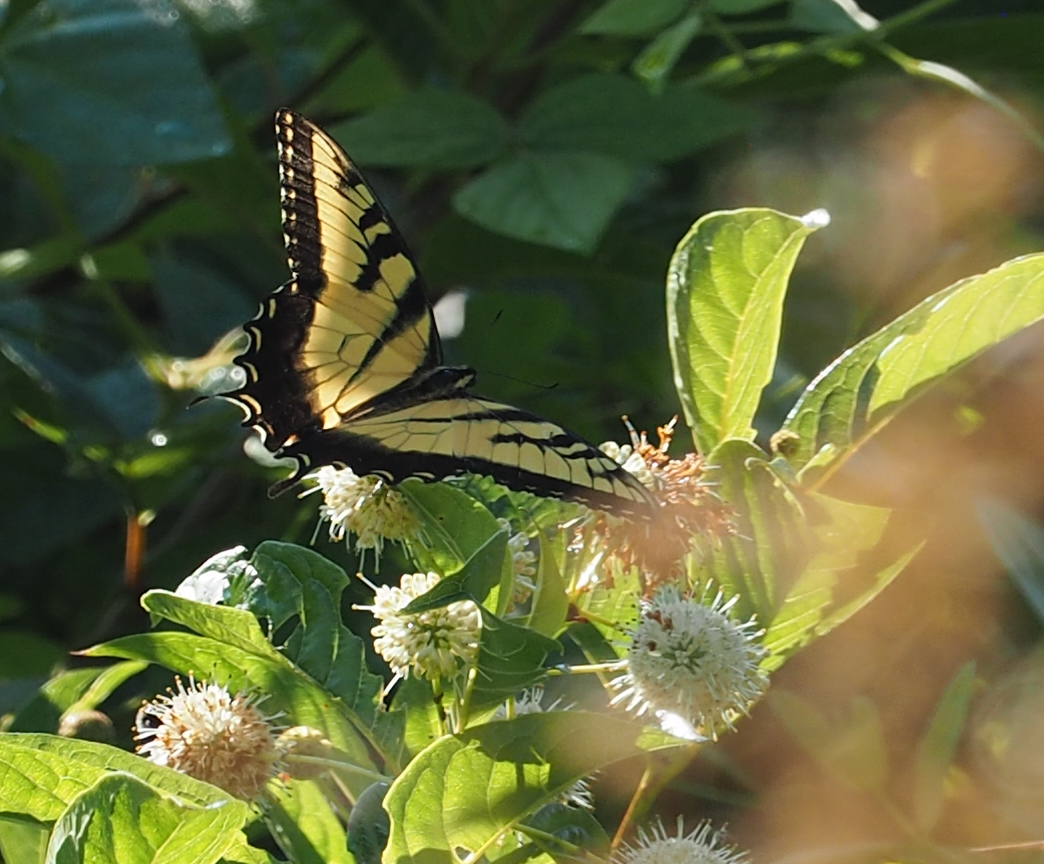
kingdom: Animalia
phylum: Arthropoda
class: Insecta
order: Lepidoptera
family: Papilionidae
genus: Papilio
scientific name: Papilio glaucus
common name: Tiger swallowtail
